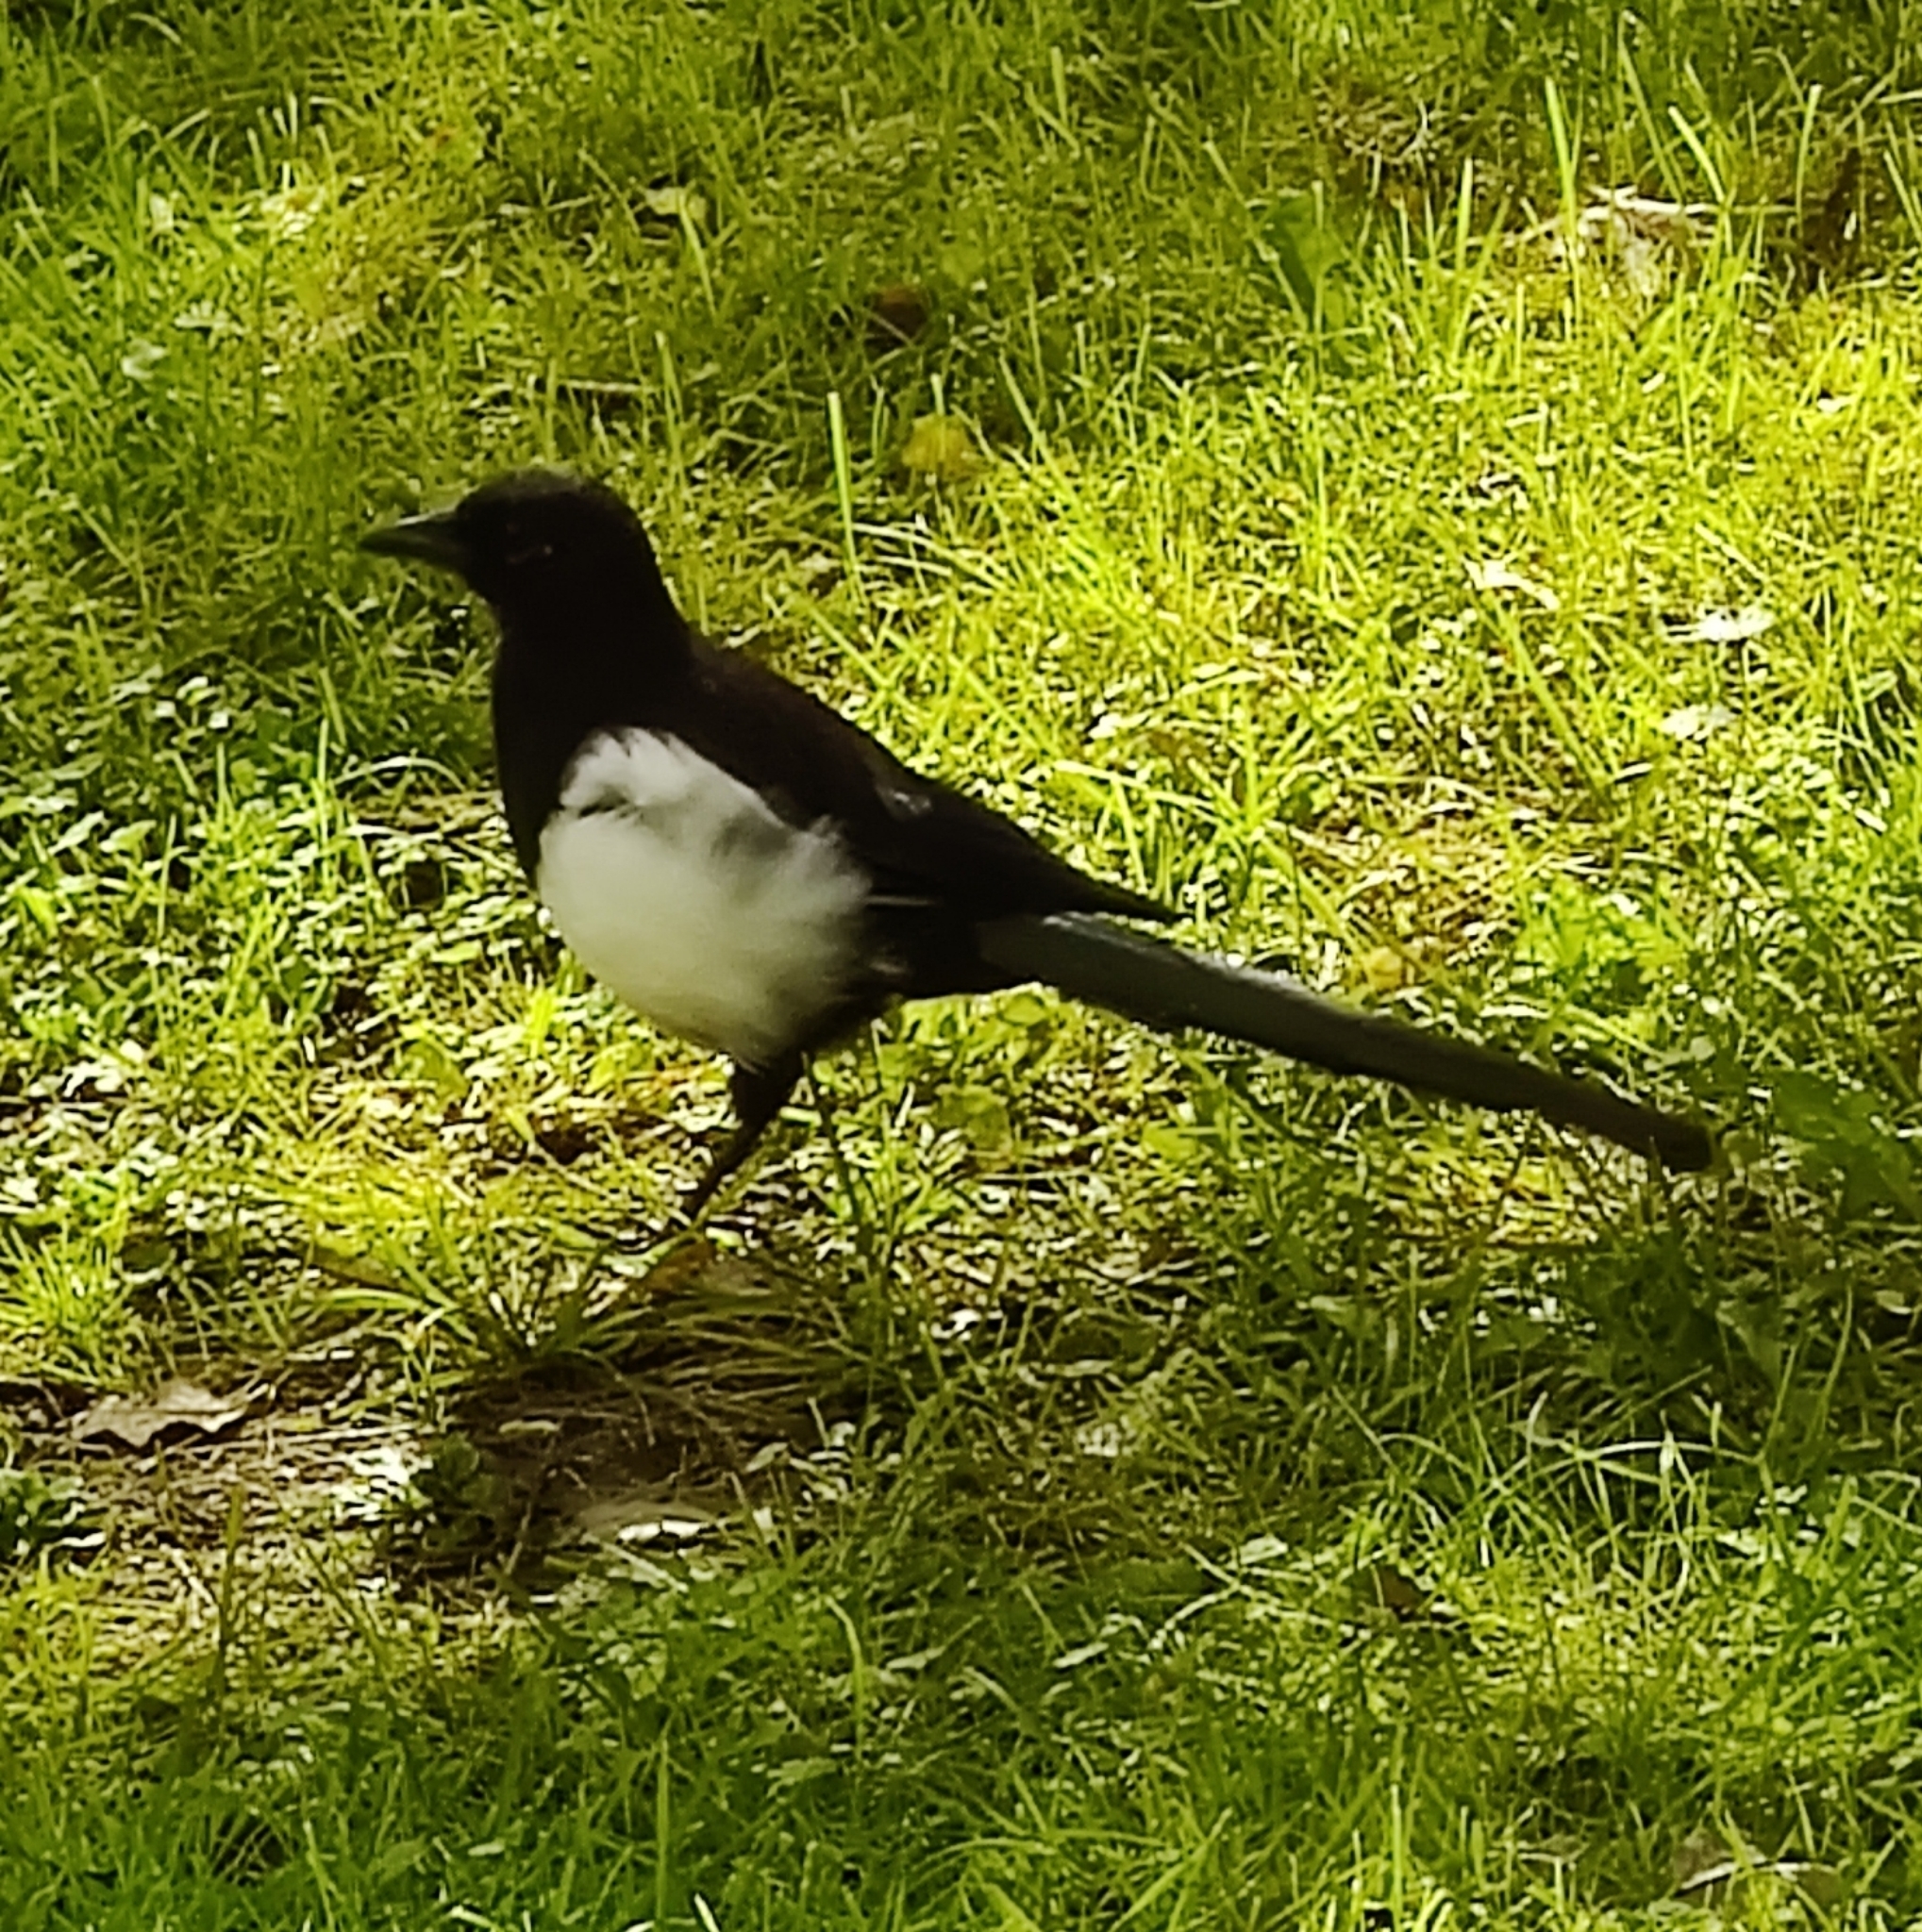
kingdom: Animalia
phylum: Chordata
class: Aves
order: Passeriformes
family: Corvidae
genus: Pica
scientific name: Pica pica
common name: Eurasian magpie
